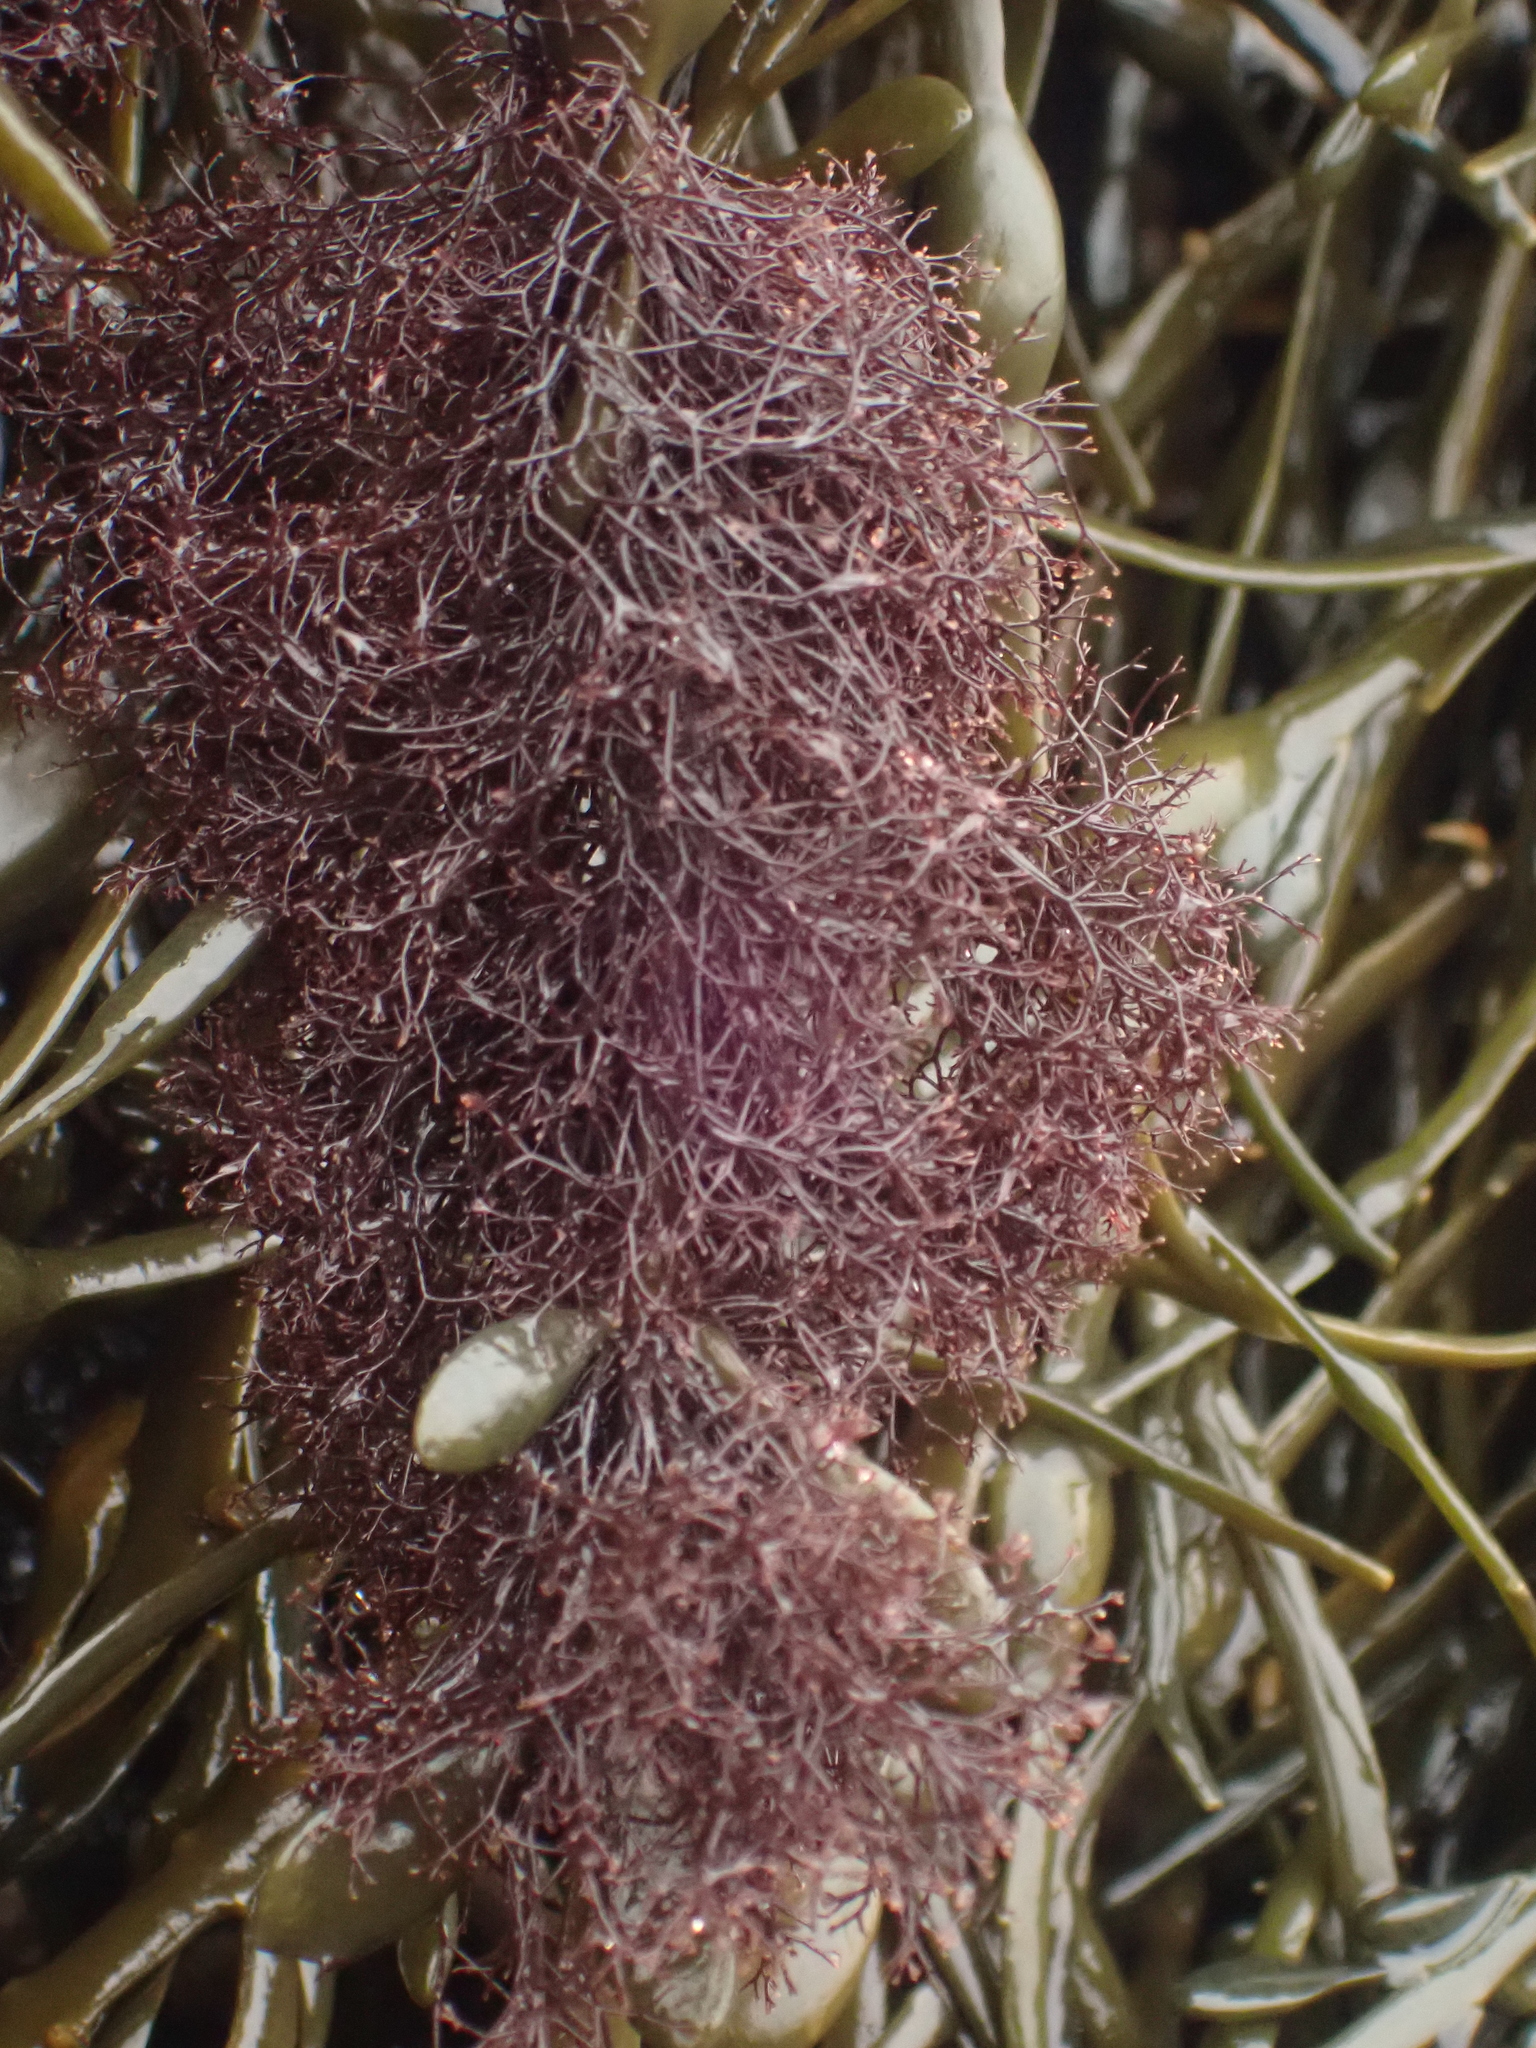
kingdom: Plantae
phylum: Rhodophyta
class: Florideophyceae
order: Ceramiales
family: Rhodomelaceae
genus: Vertebrata
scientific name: Vertebrata lanosa
